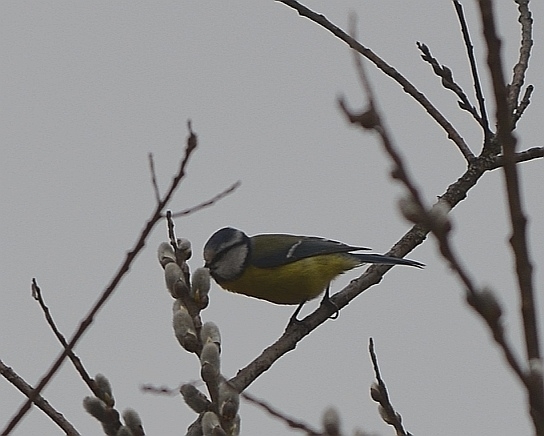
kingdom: Animalia
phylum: Chordata
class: Aves
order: Passeriformes
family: Paridae
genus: Cyanistes
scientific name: Cyanistes caeruleus
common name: Eurasian blue tit
